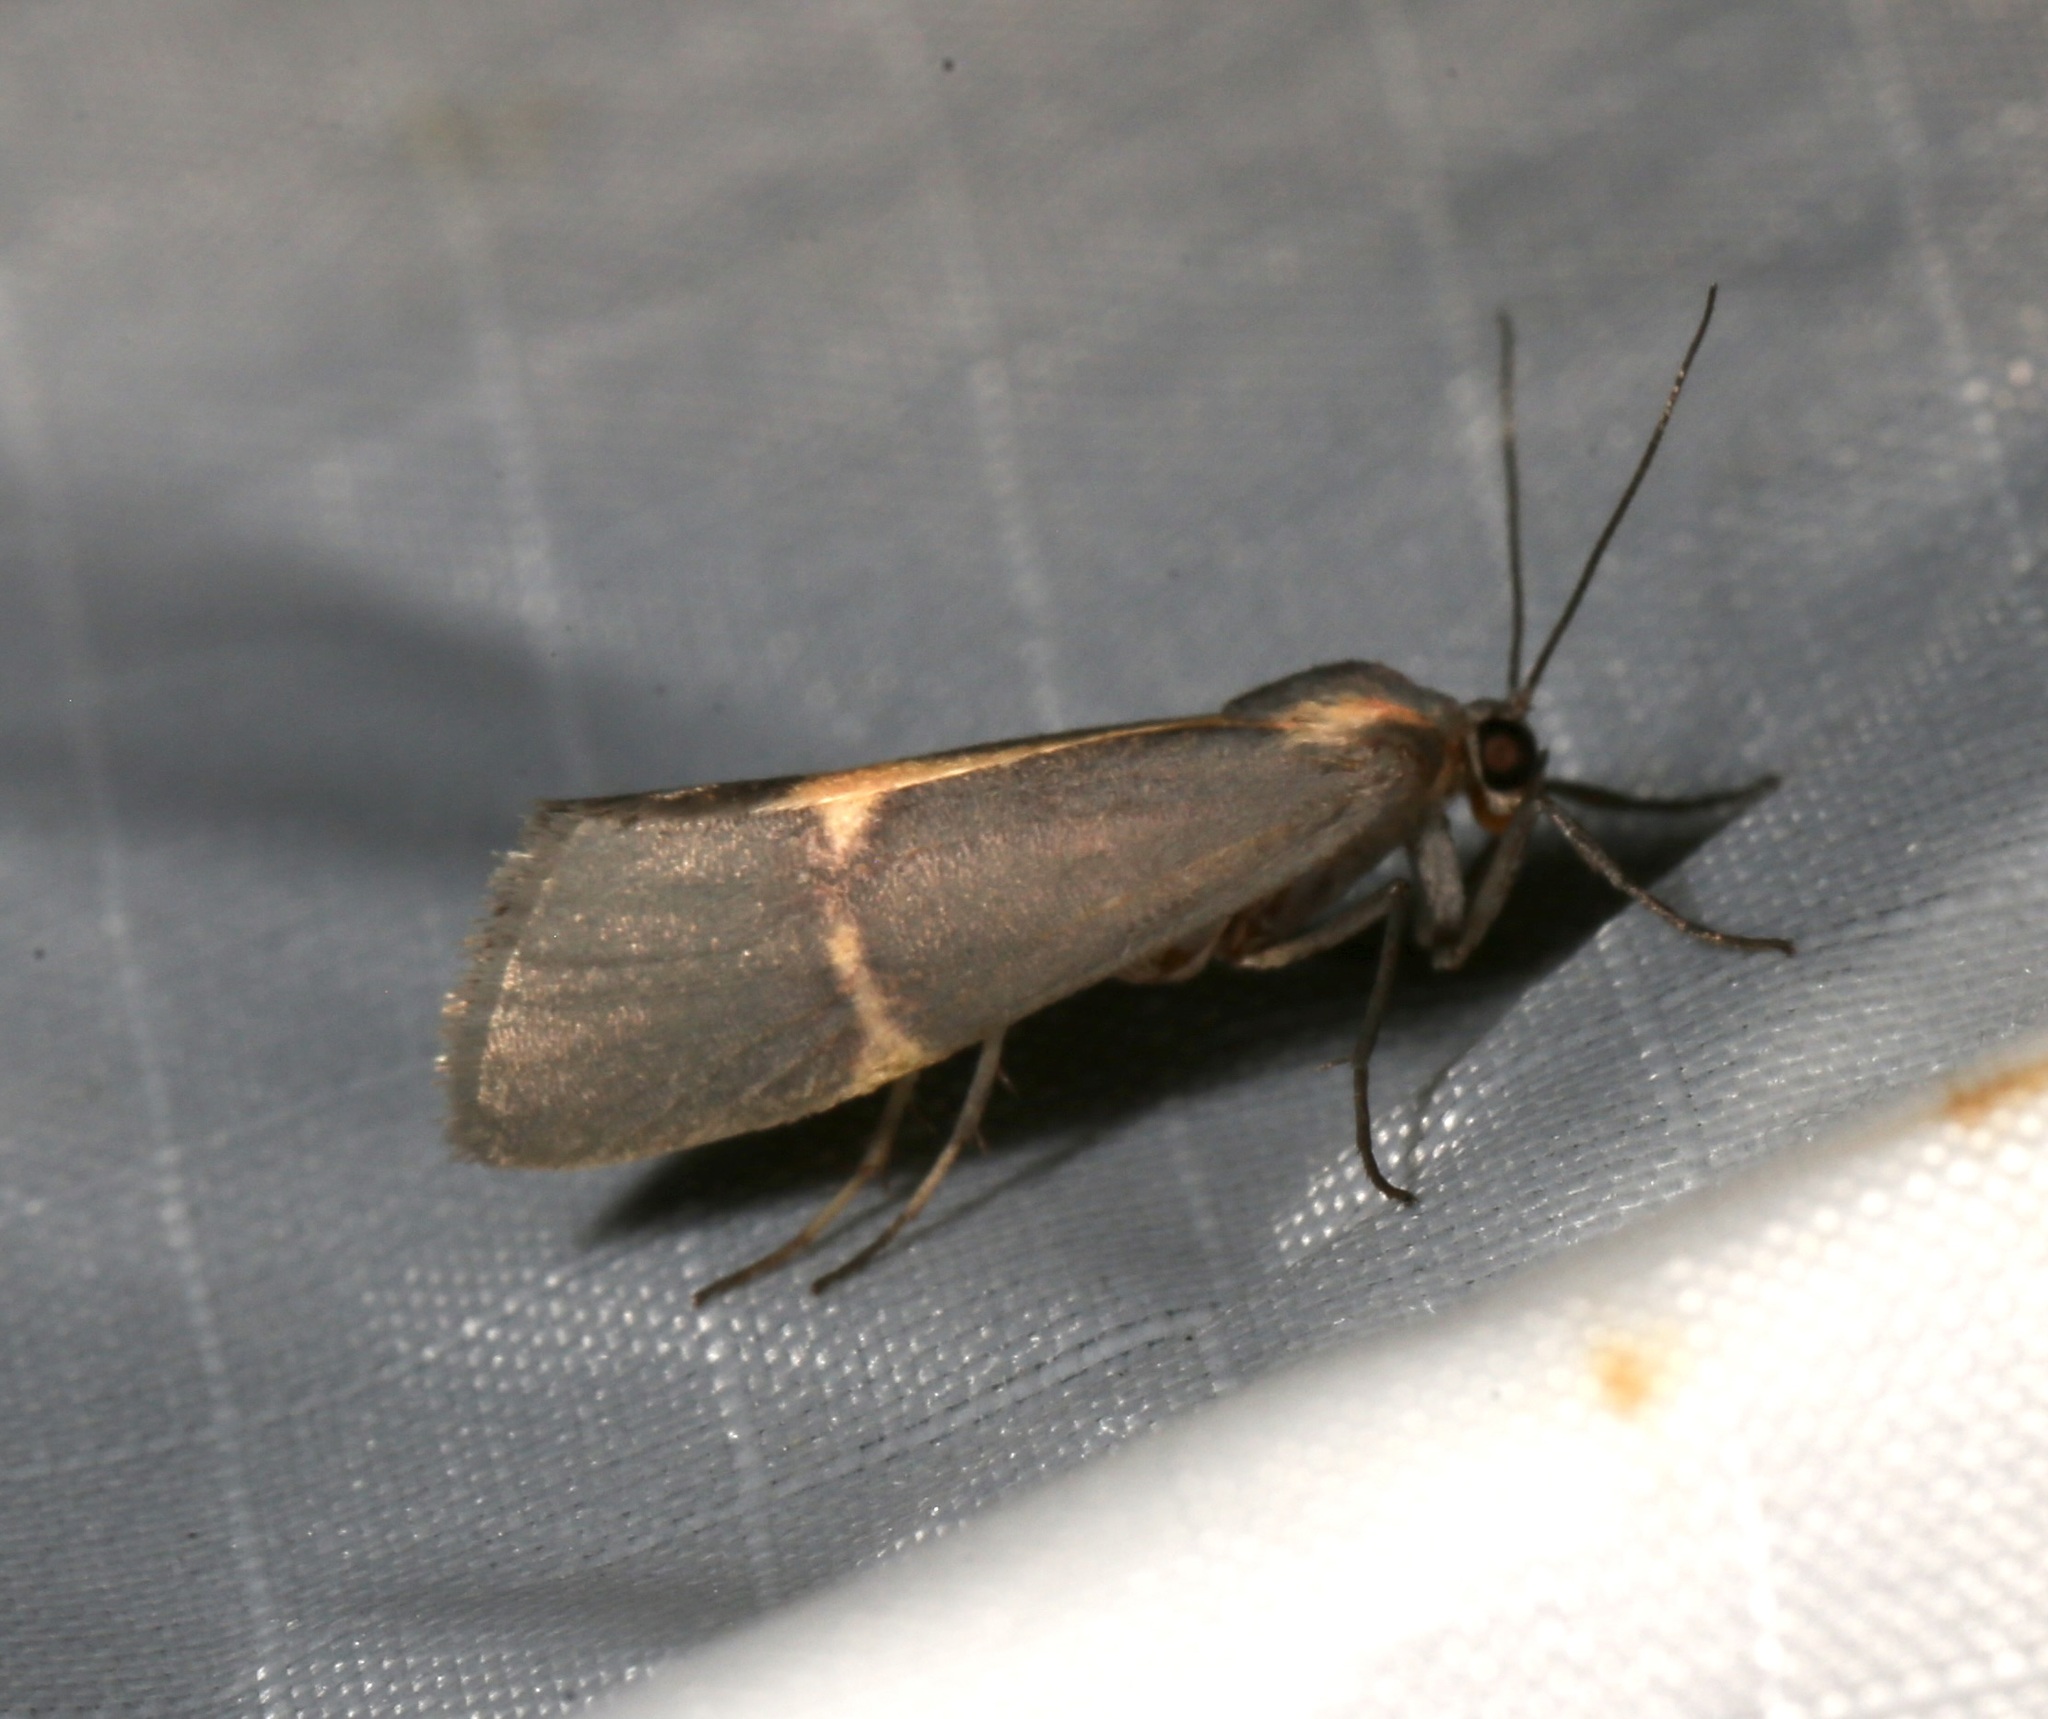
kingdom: Animalia
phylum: Arthropoda
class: Insecta
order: Lepidoptera
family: Erebidae
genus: Cisthene
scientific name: Cisthene barnesii
